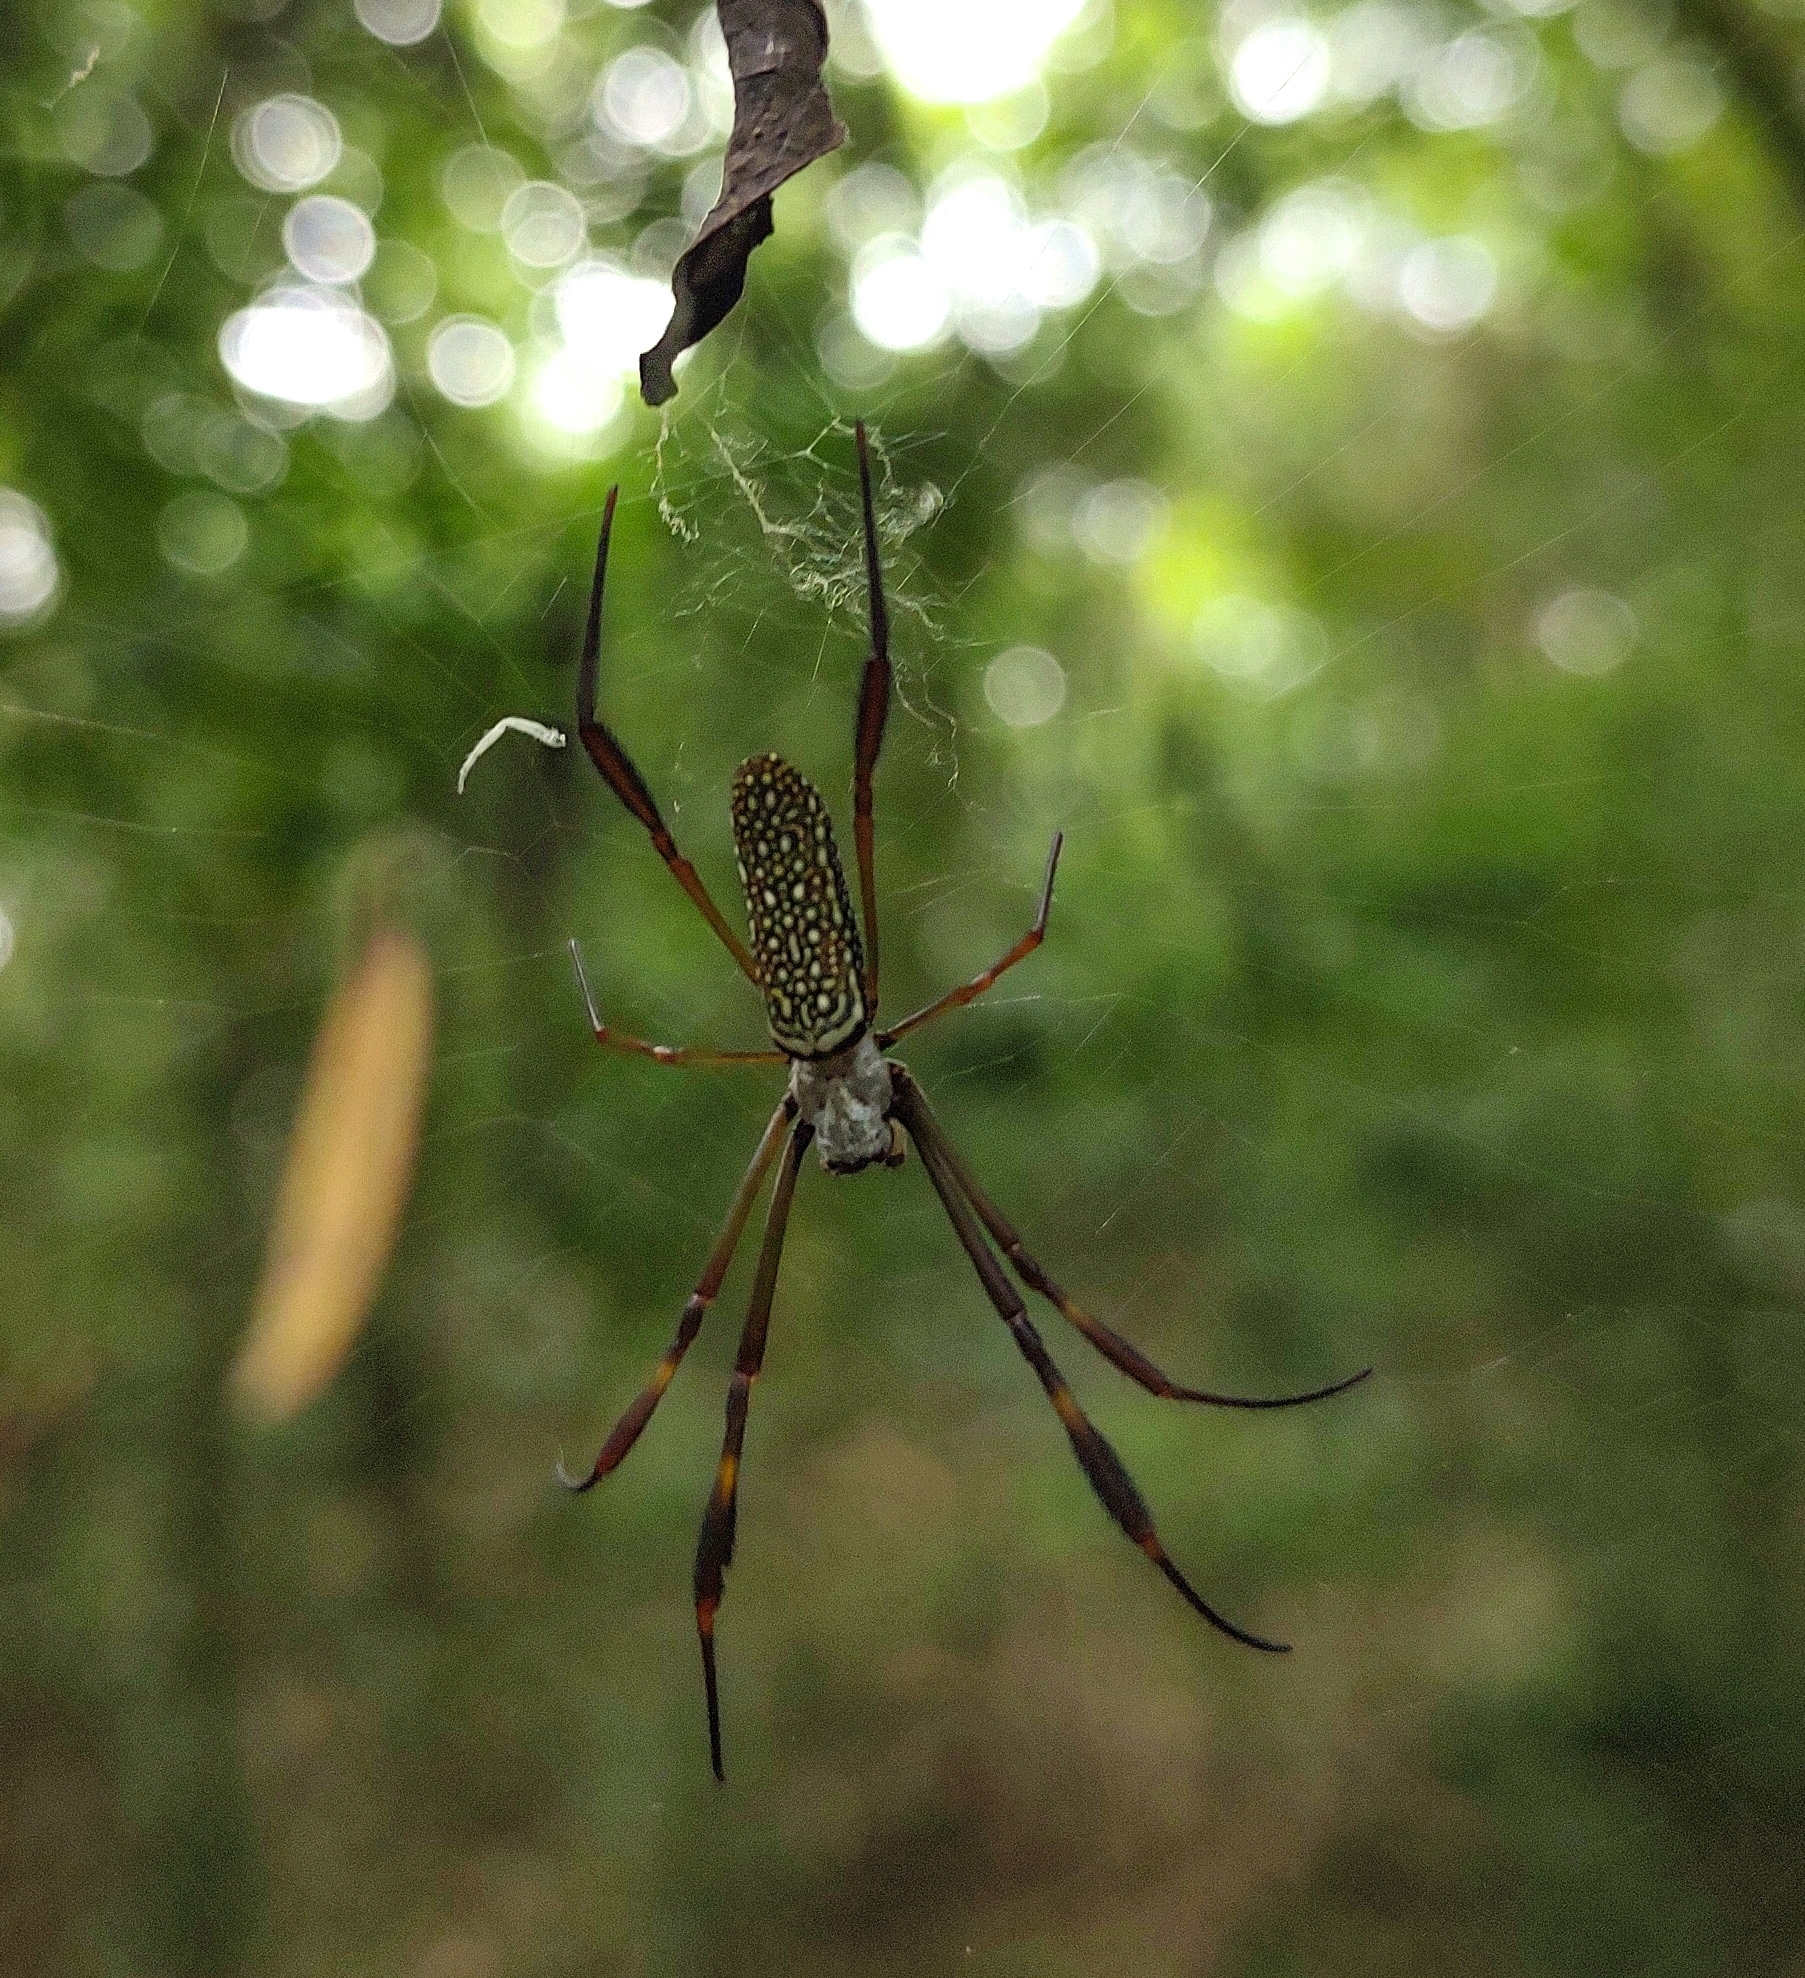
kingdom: Animalia
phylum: Arthropoda
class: Arachnida
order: Araneae
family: Araneidae
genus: Trichonephila
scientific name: Trichonephila clavipes
